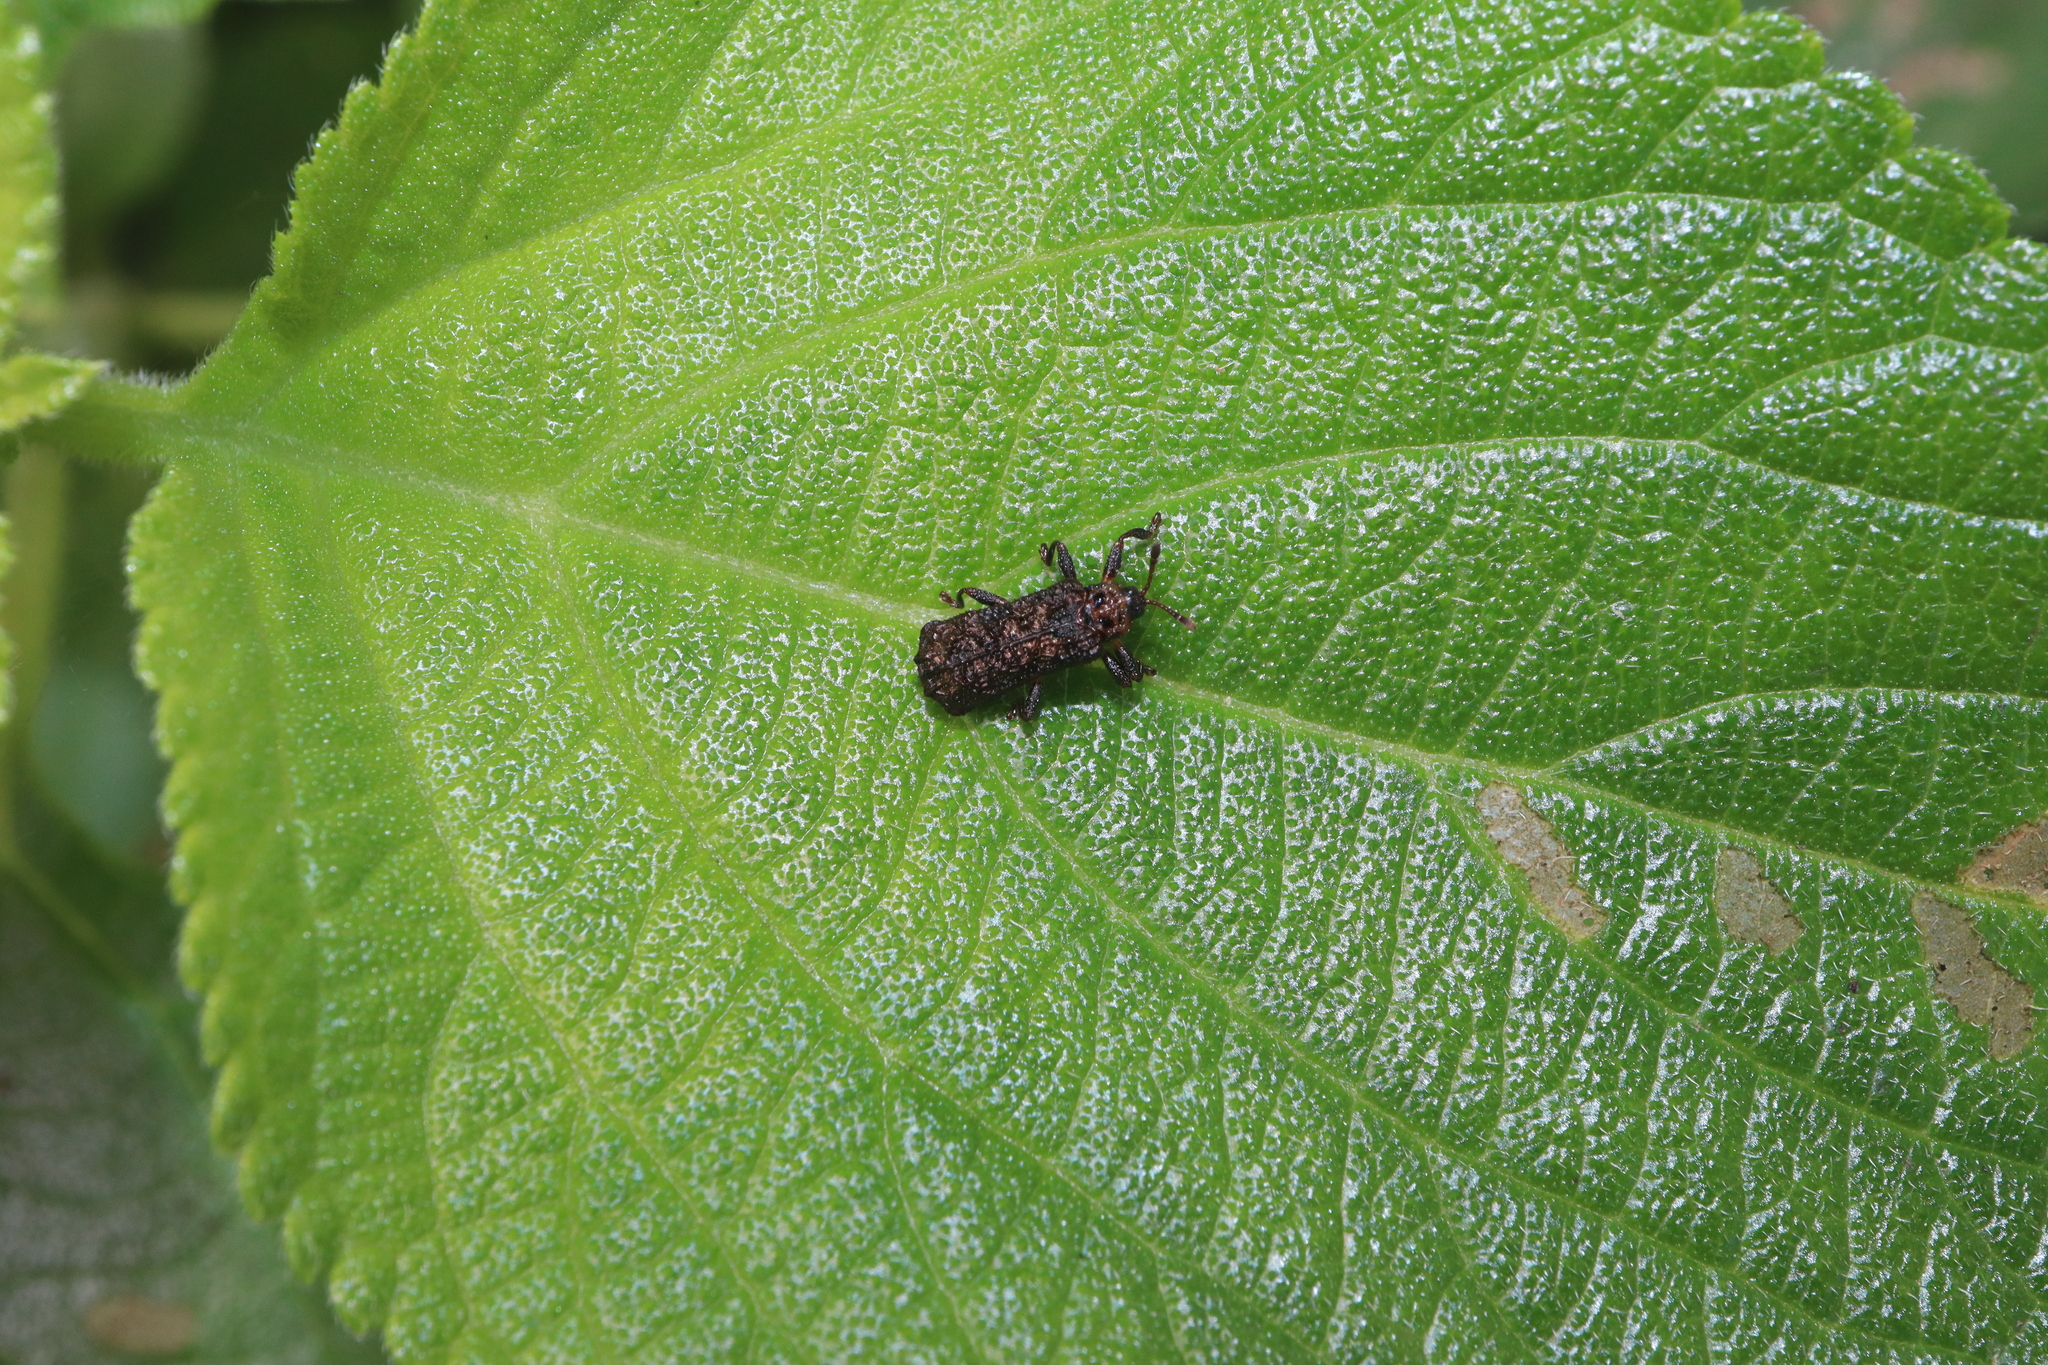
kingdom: Animalia
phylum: Arthropoda
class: Insecta
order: Coleoptera
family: Chrysomelidae
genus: Octotoma
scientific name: Octotoma scabripennis
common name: Beetle
